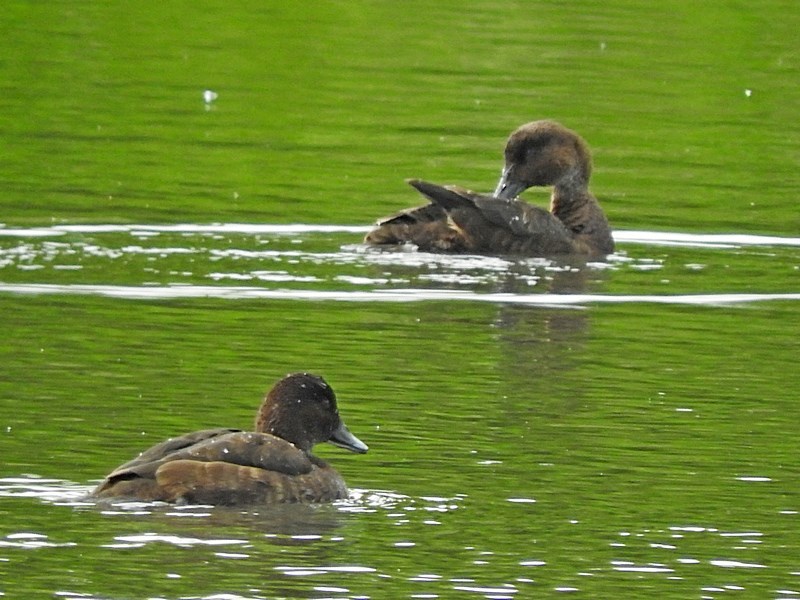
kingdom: Animalia
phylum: Chordata
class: Aves
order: Anseriformes
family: Anatidae
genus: Aythya
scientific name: Aythya australis
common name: Hardhead
